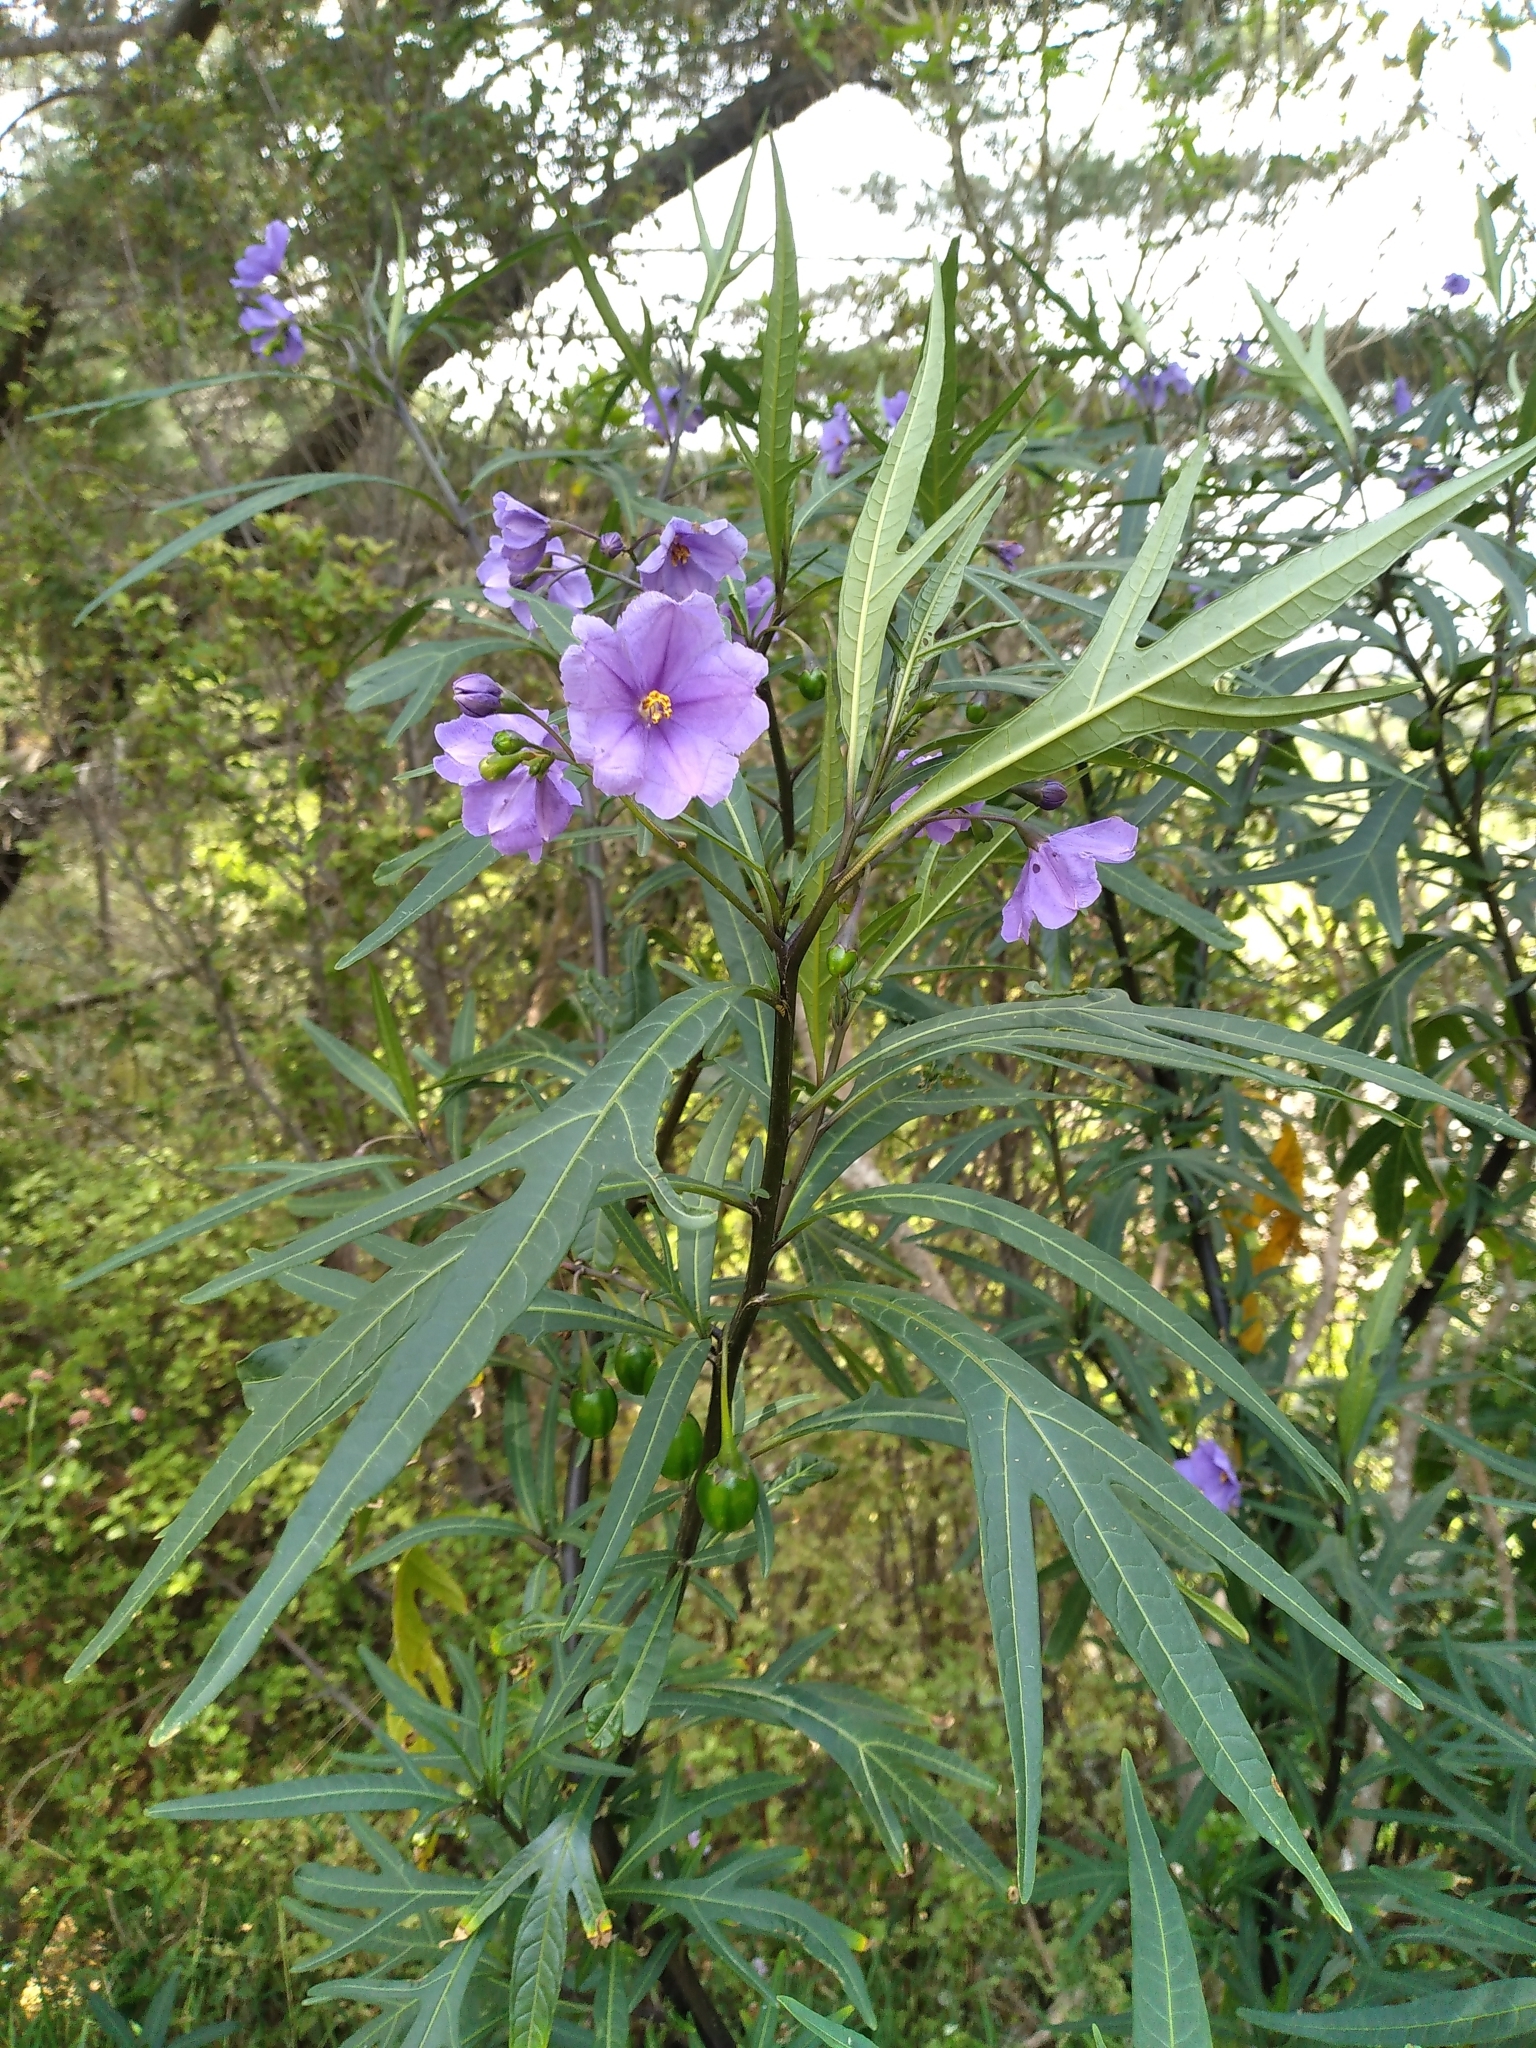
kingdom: Plantae
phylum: Tracheophyta
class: Magnoliopsida
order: Solanales
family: Solanaceae
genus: Solanum
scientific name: Solanum laciniatum
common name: Kangaroo-apple
